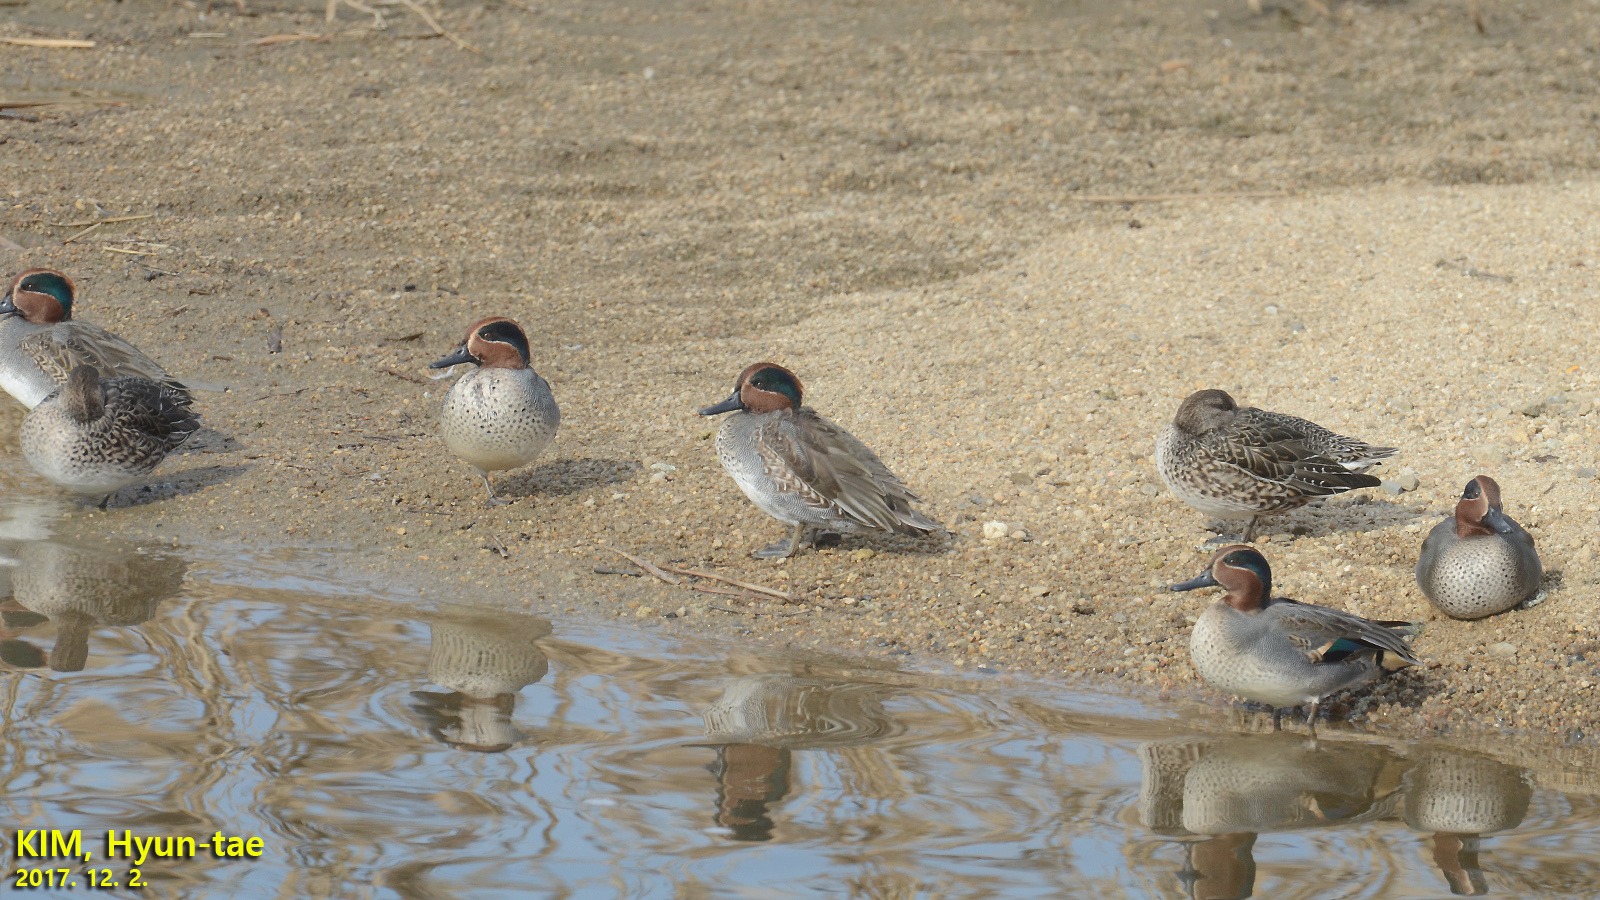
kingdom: Animalia
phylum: Chordata
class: Aves
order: Anseriformes
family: Anatidae
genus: Anas
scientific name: Anas crecca
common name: Eurasian teal
